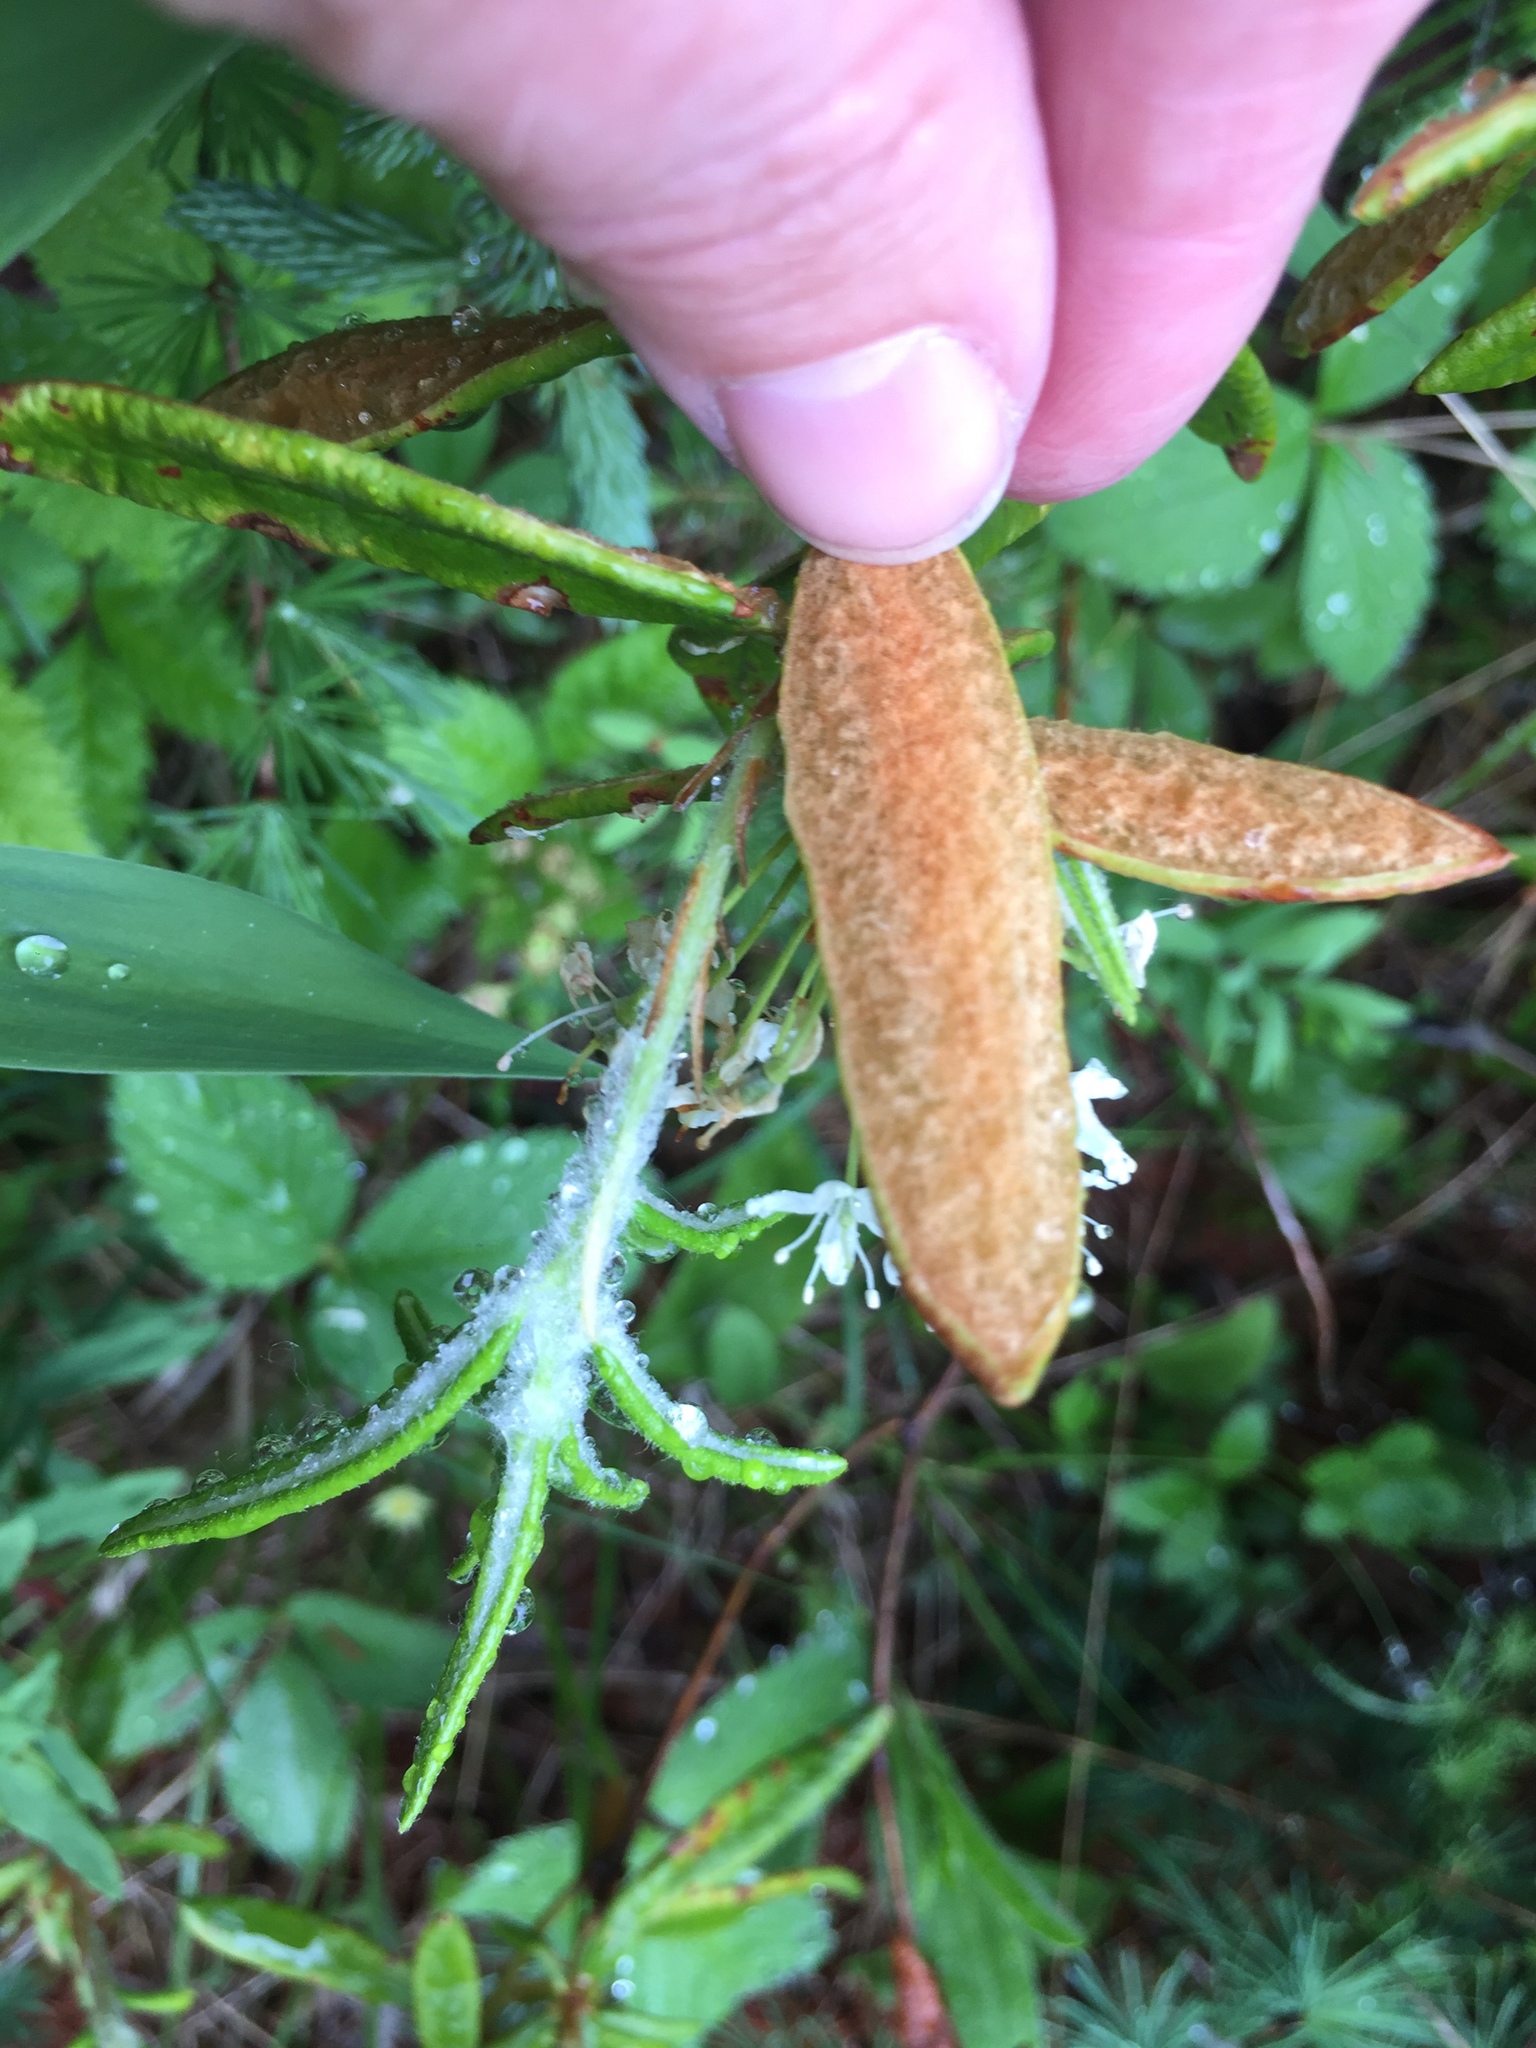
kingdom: Plantae
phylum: Tracheophyta
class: Magnoliopsida
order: Ericales
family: Ericaceae
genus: Rhododendron
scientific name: Rhododendron groenlandicum
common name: Bog labrador tea
